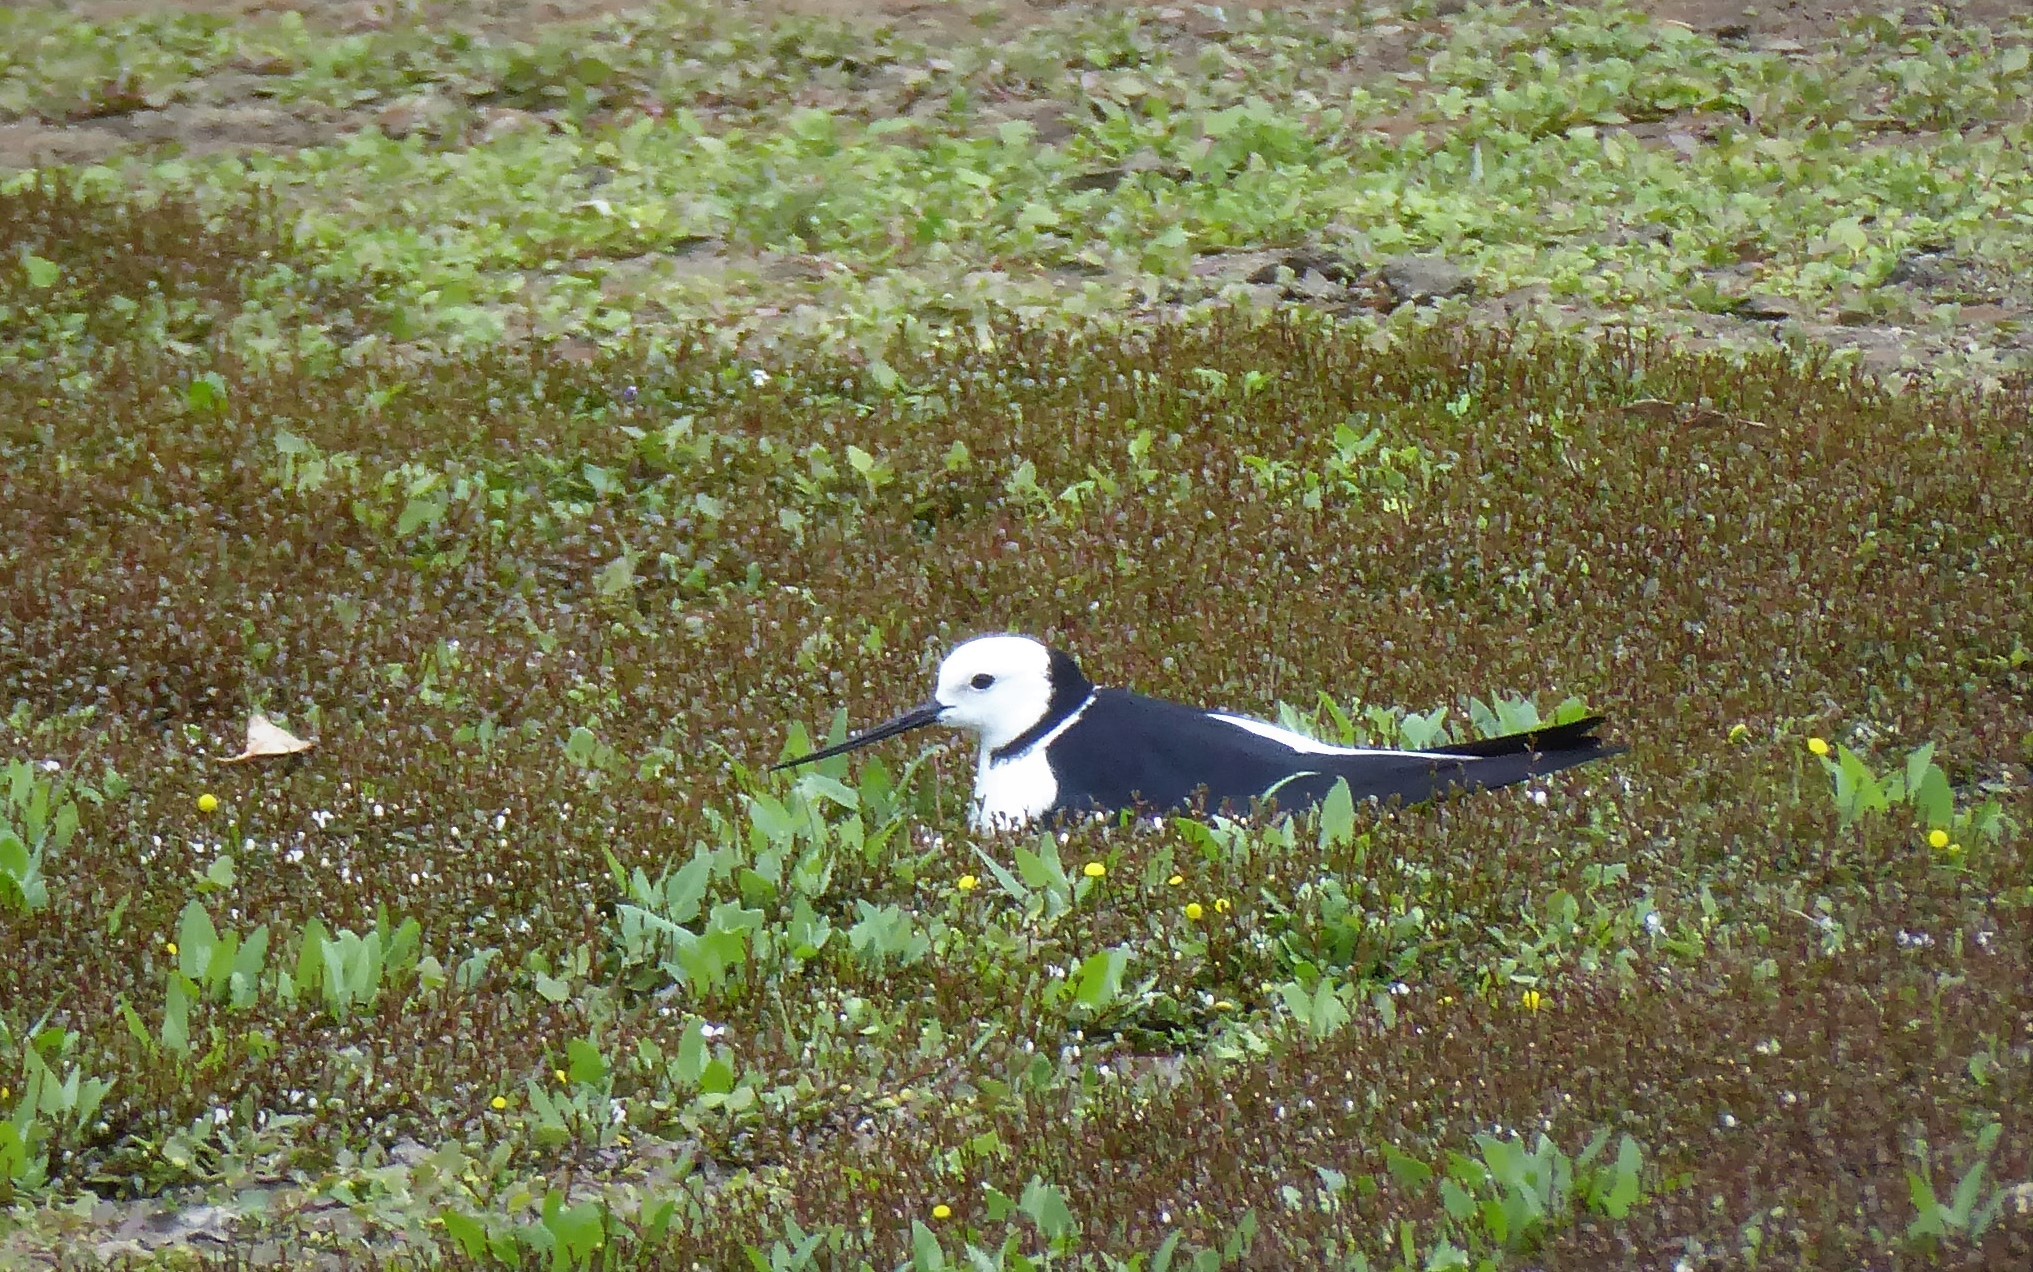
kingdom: Animalia
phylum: Chordata
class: Aves
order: Charadriiformes
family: Recurvirostridae
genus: Himantopus
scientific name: Himantopus leucocephalus
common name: White-headed stilt
